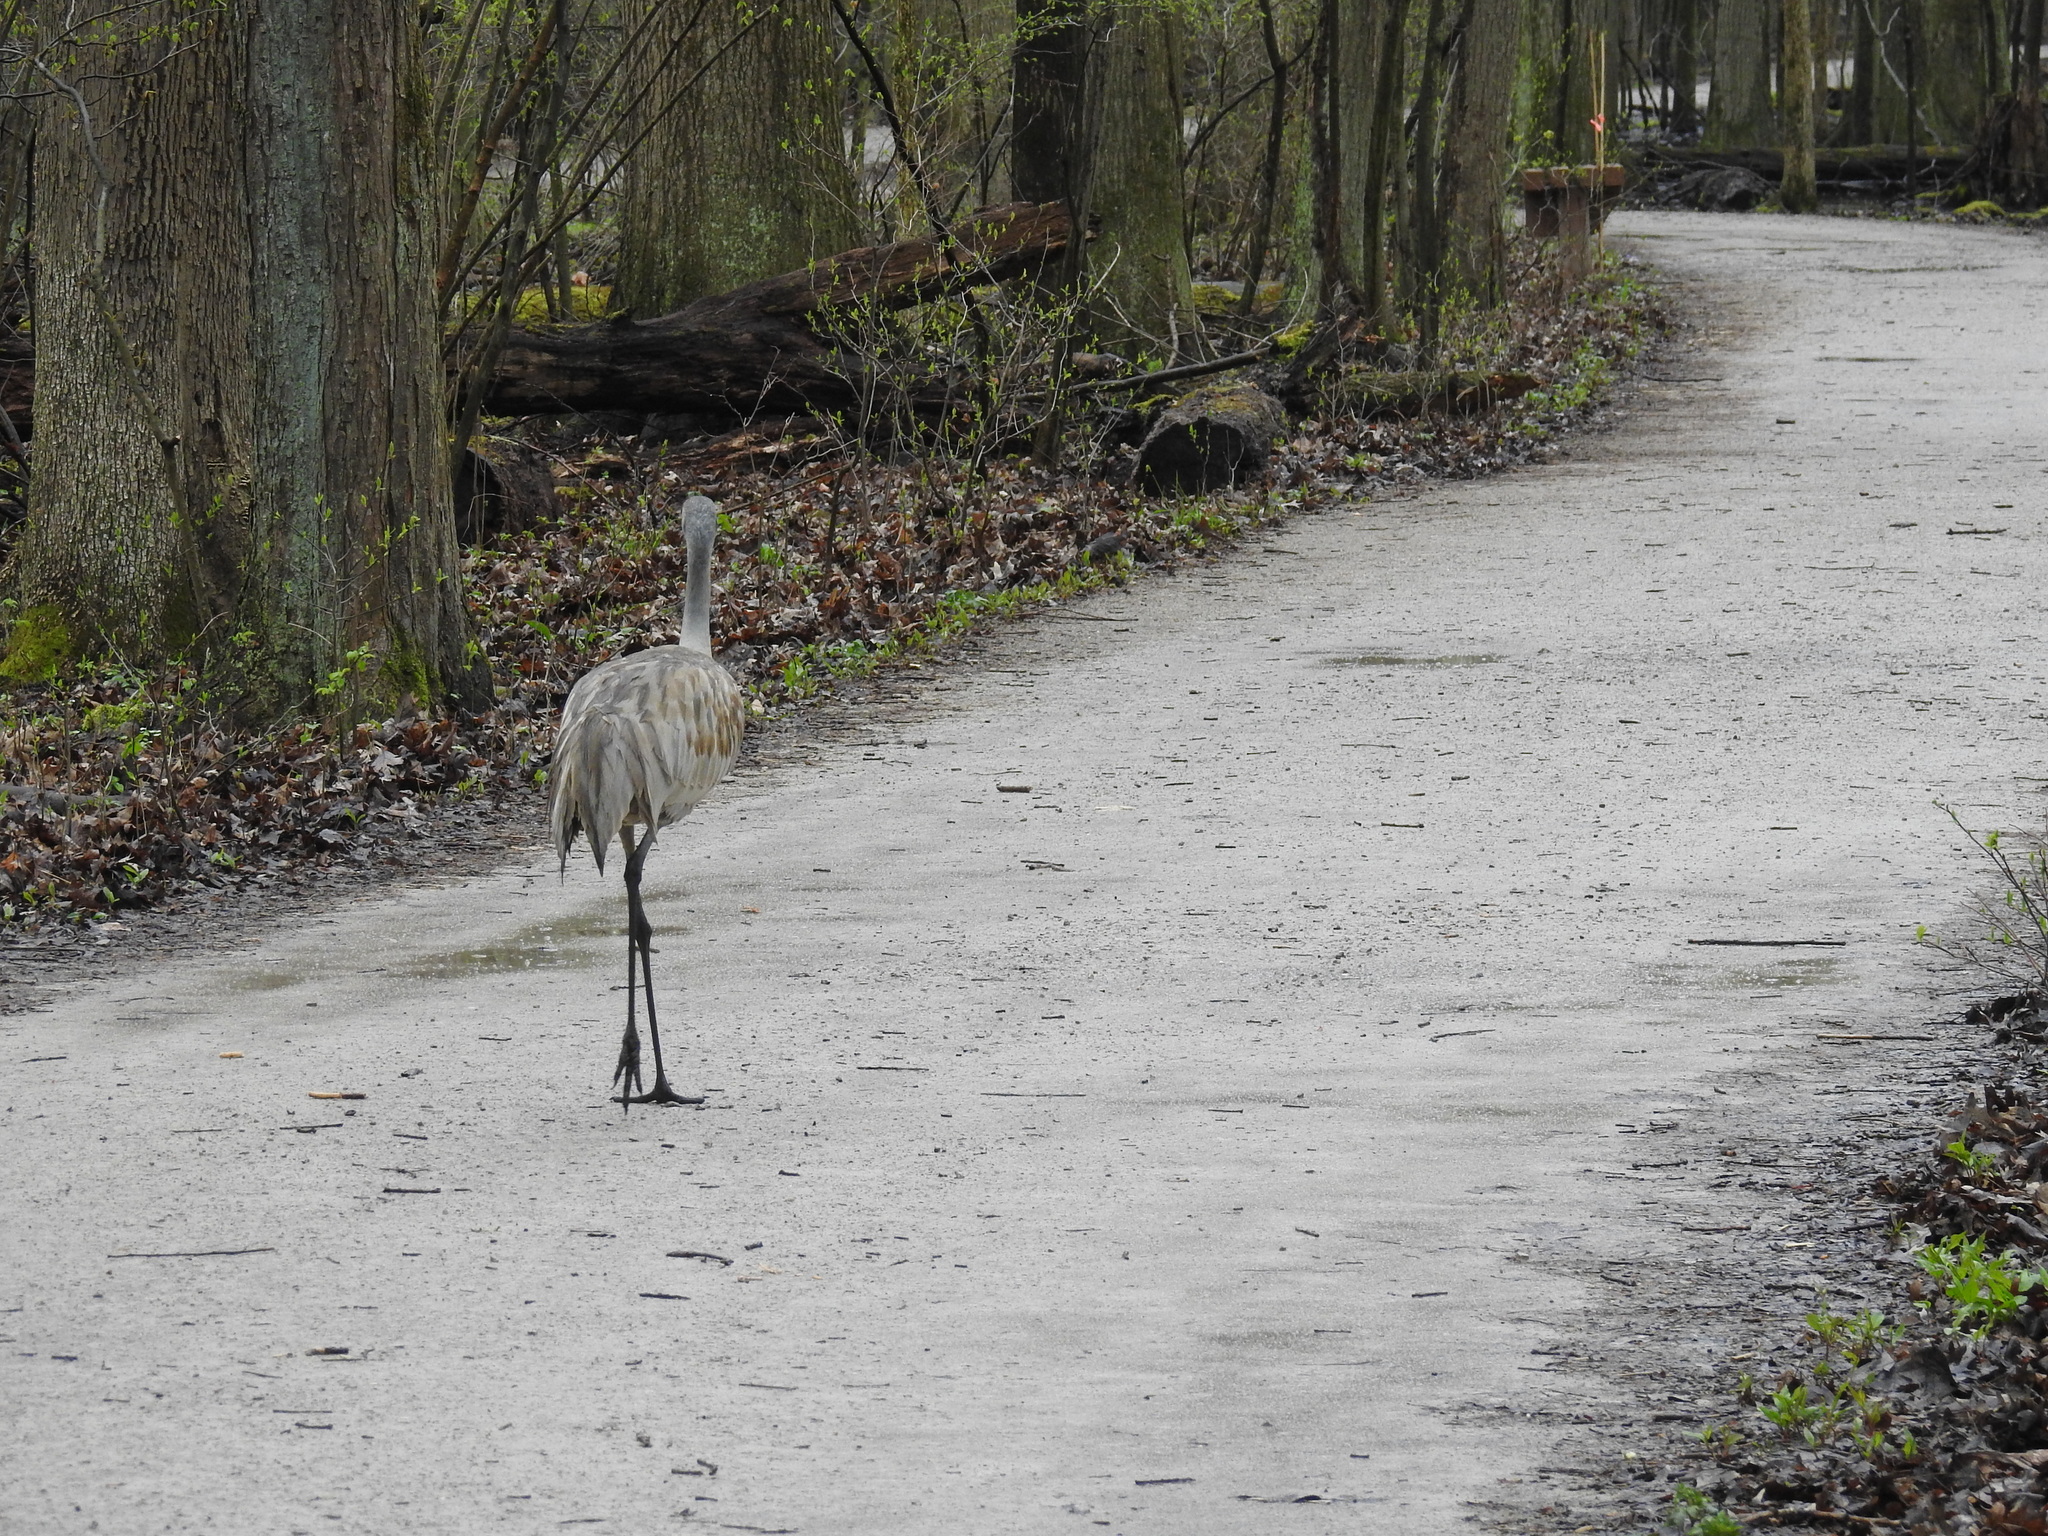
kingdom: Animalia
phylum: Chordata
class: Aves
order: Gruiformes
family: Gruidae
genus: Grus
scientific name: Grus canadensis
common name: Sandhill crane
